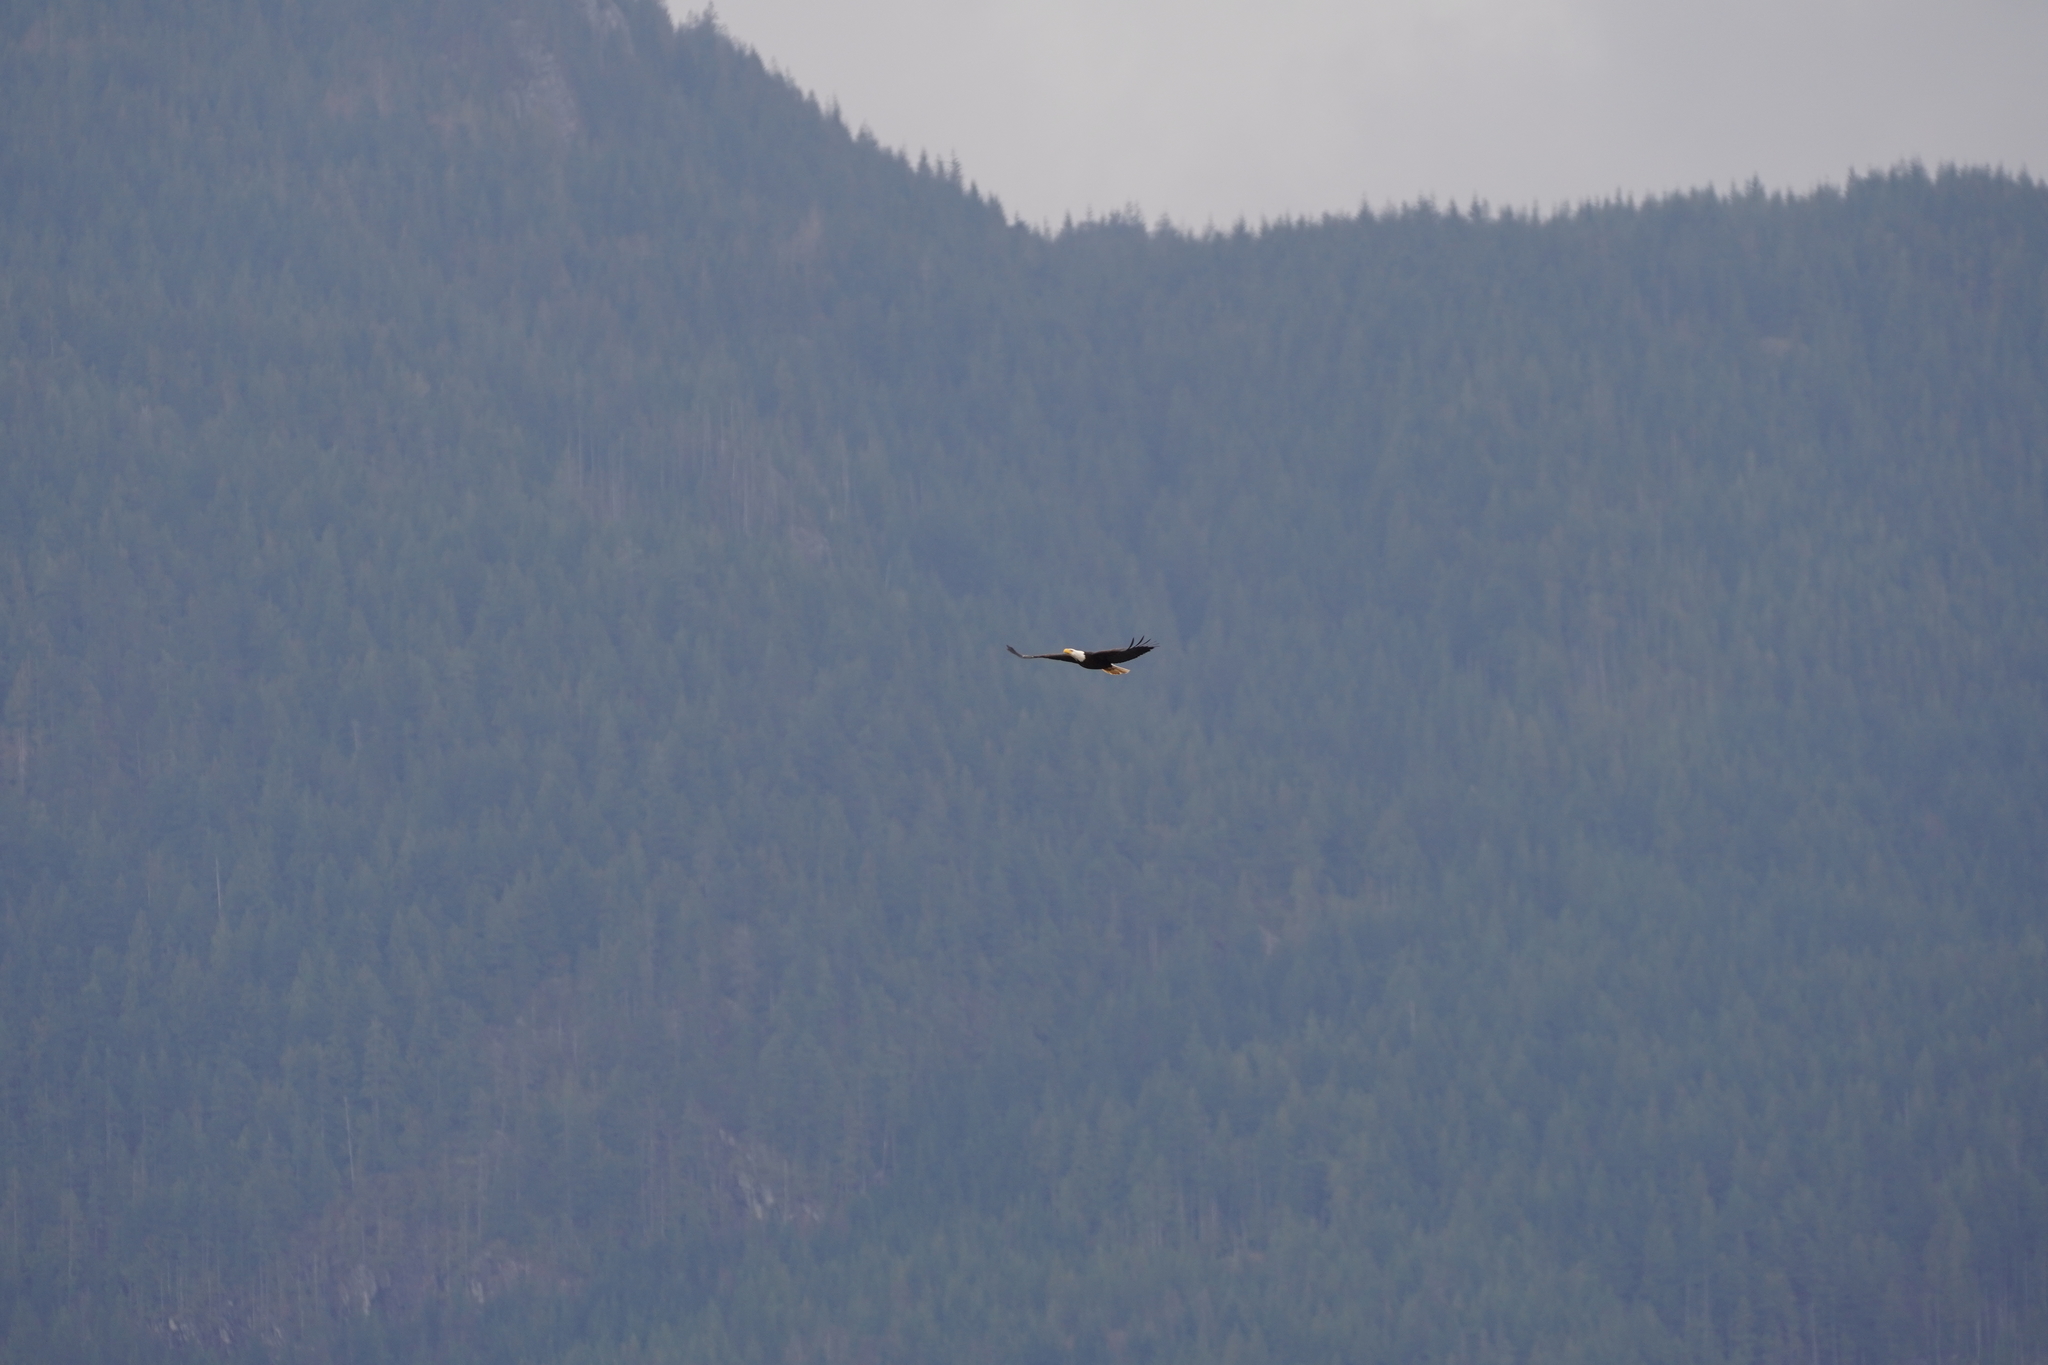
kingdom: Animalia
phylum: Chordata
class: Aves
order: Accipitriformes
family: Accipitridae
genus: Haliaeetus
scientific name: Haliaeetus leucocephalus
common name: Bald eagle
